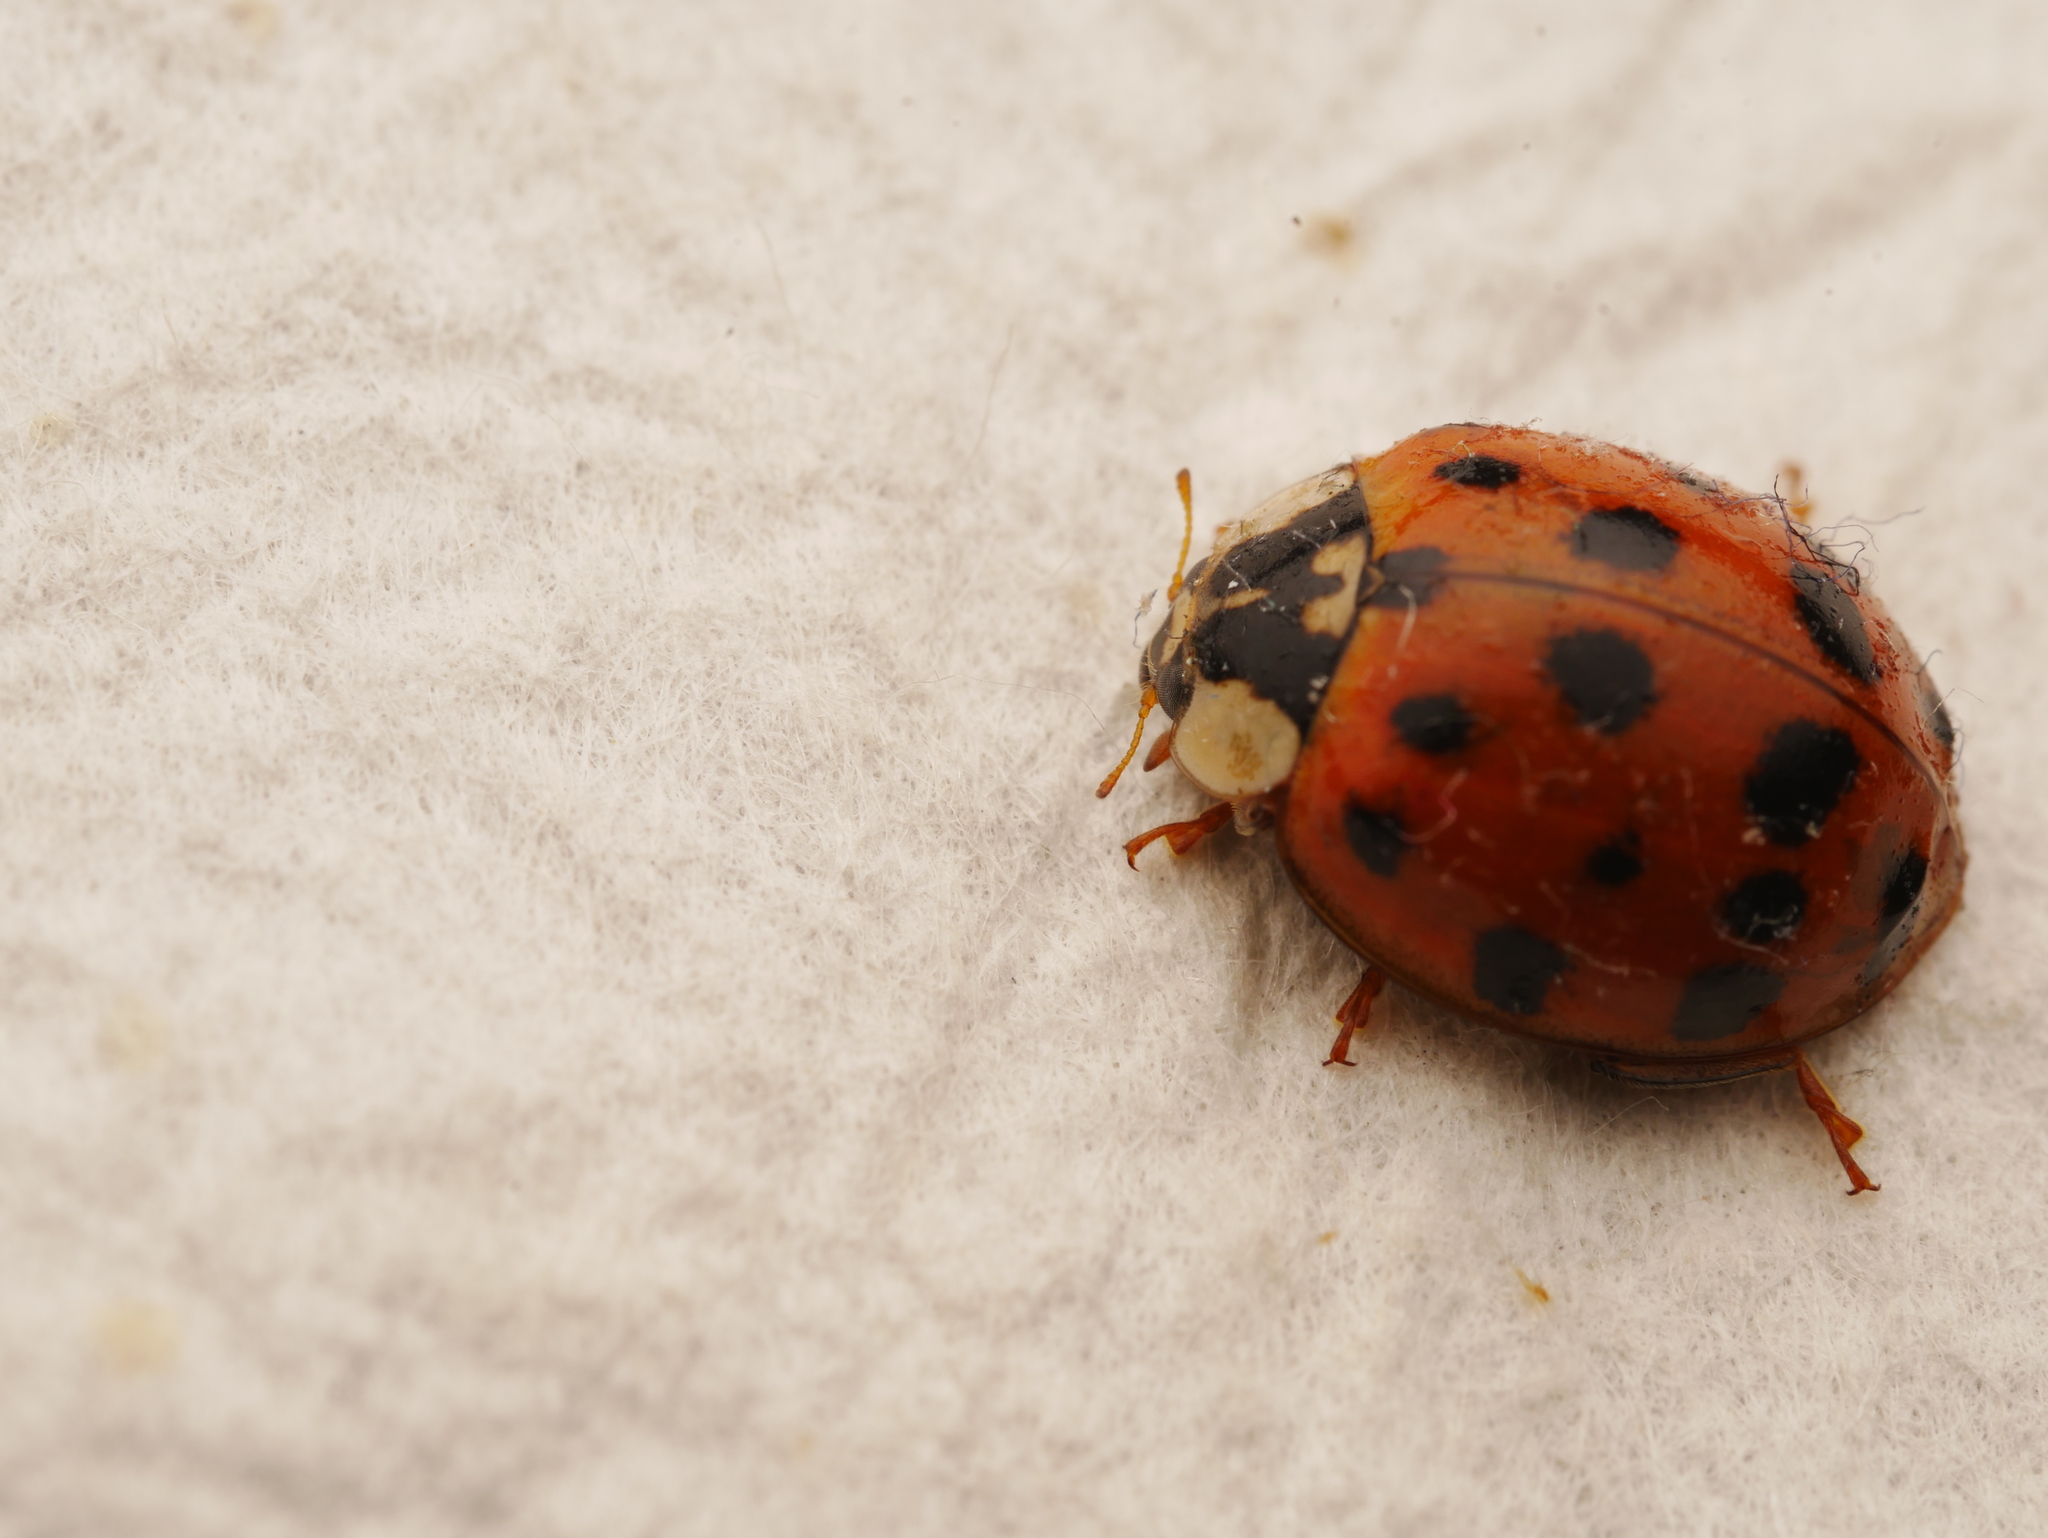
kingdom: Animalia
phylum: Arthropoda
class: Insecta
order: Coleoptera
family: Coccinellidae
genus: Harmonia
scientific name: Harmonia axyridis
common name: Harlequin ladybird
